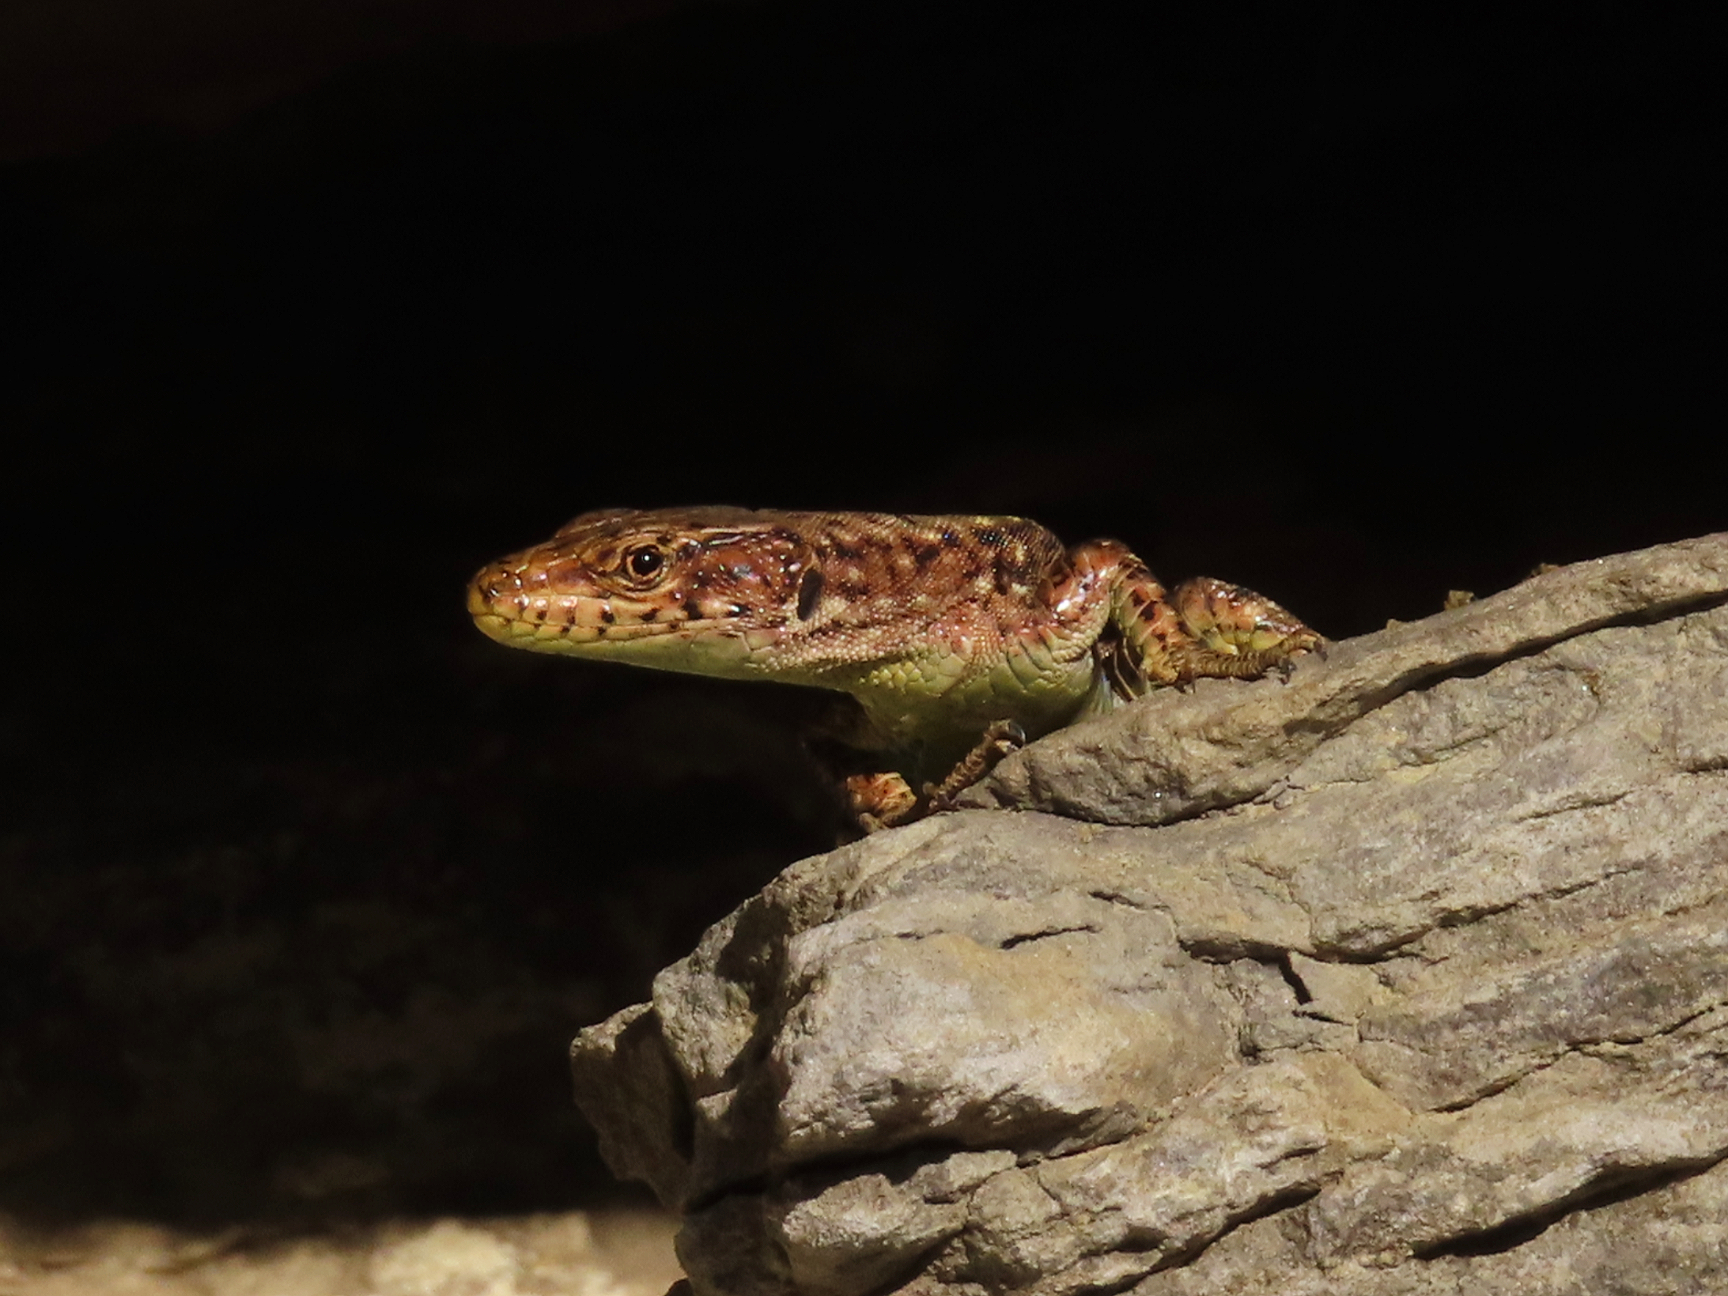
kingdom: Animalia
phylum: Chordata
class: Squamata
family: Lacertidae
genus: Darevskia
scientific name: Darevskia bithynica
